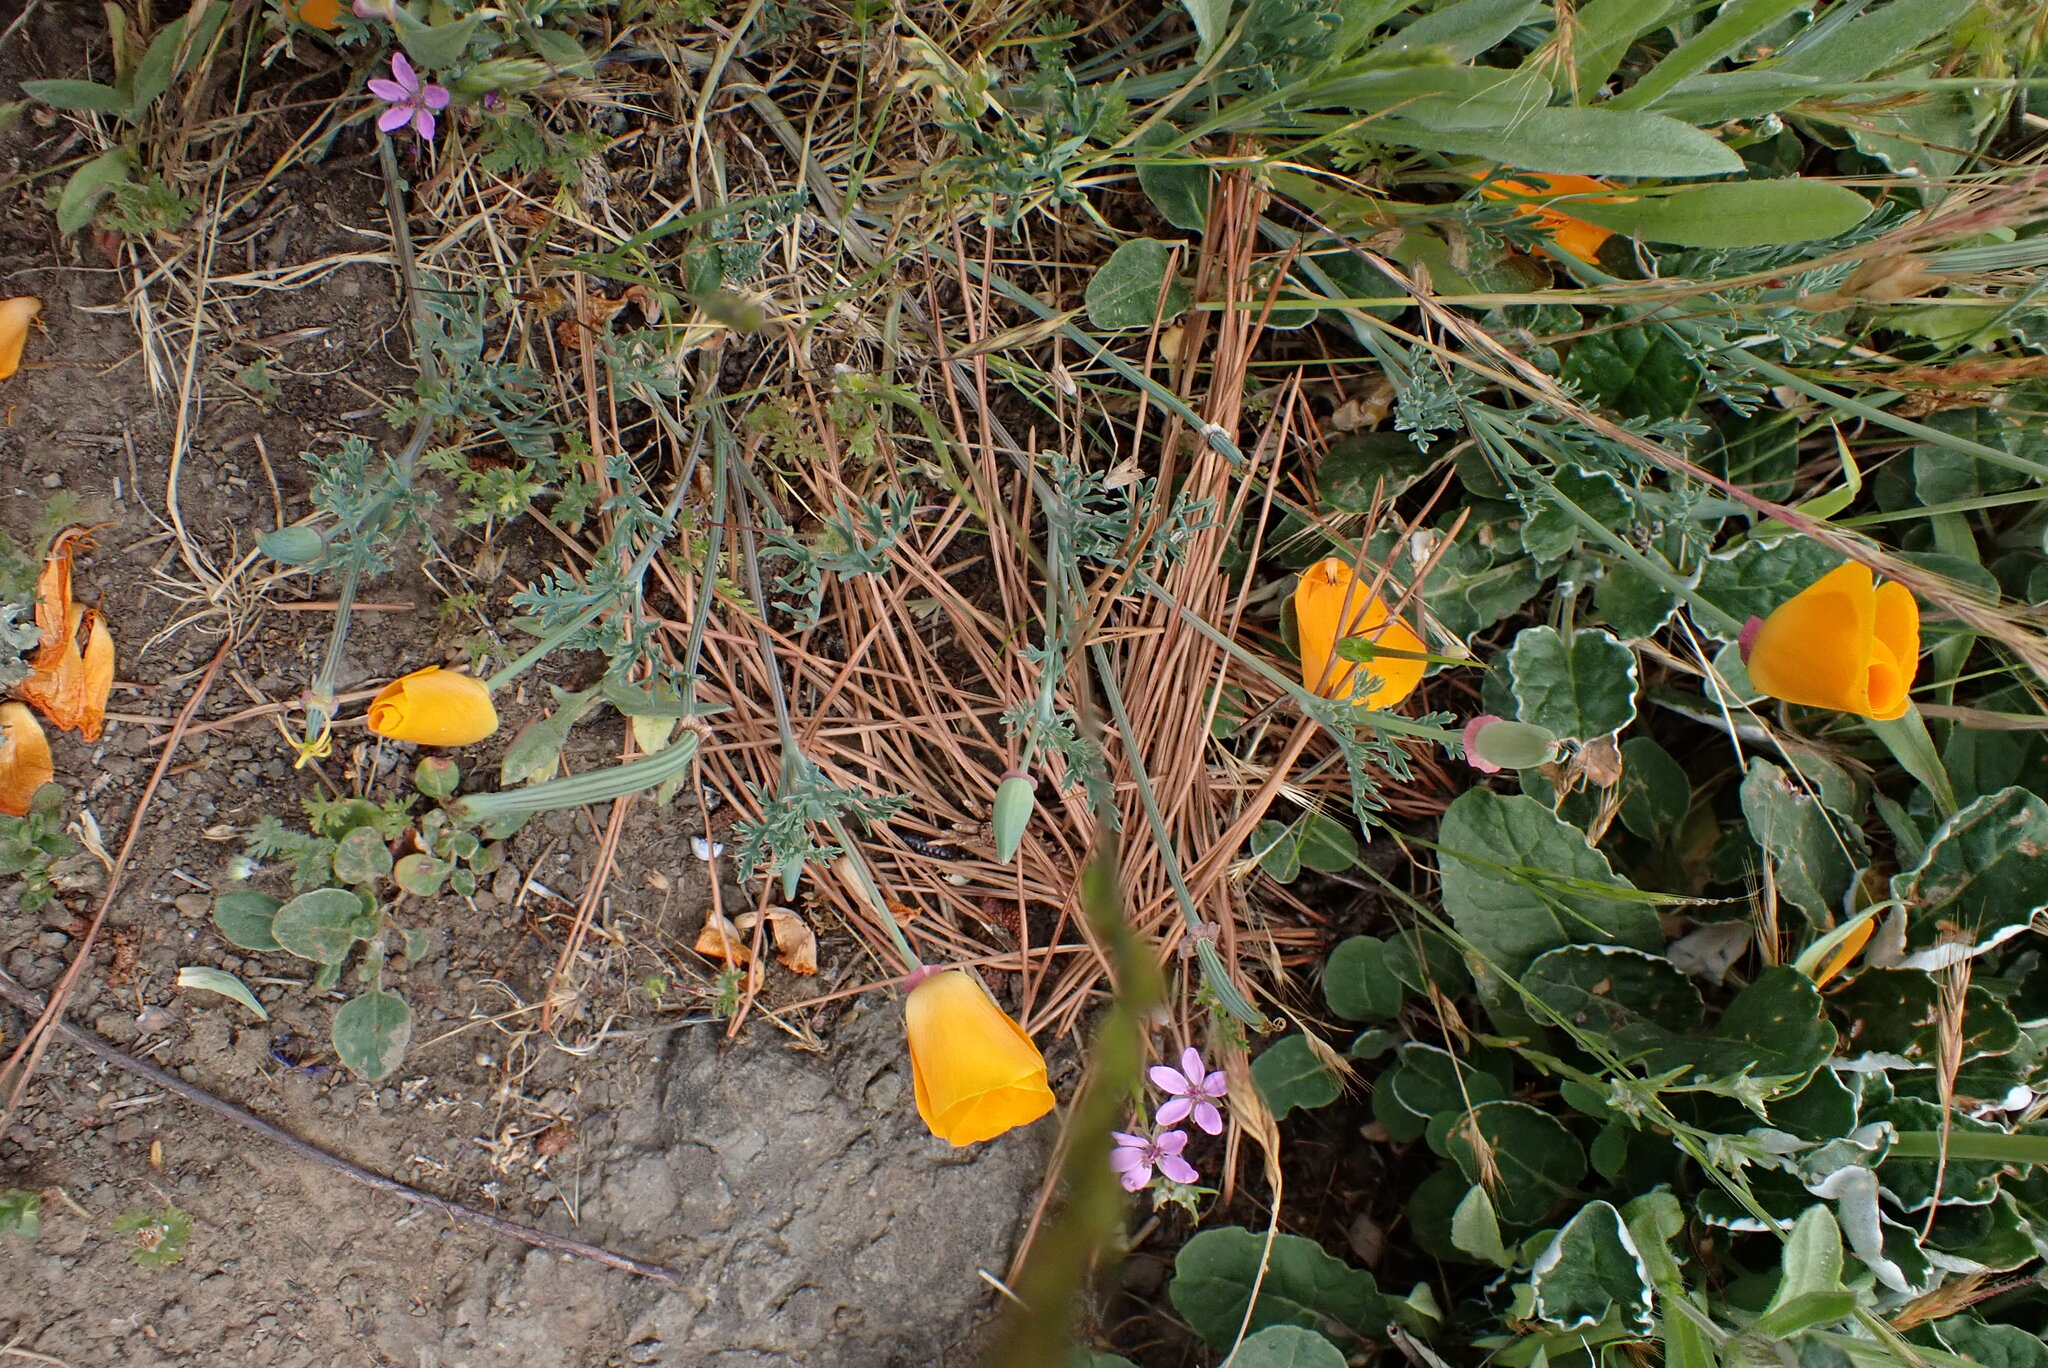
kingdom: Plantae
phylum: Tracheophyta
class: Magnoliopsida
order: Ranunculales
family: Papaveraceae
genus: Eschscholzia
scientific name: Eschscholzia californica
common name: California poppy
